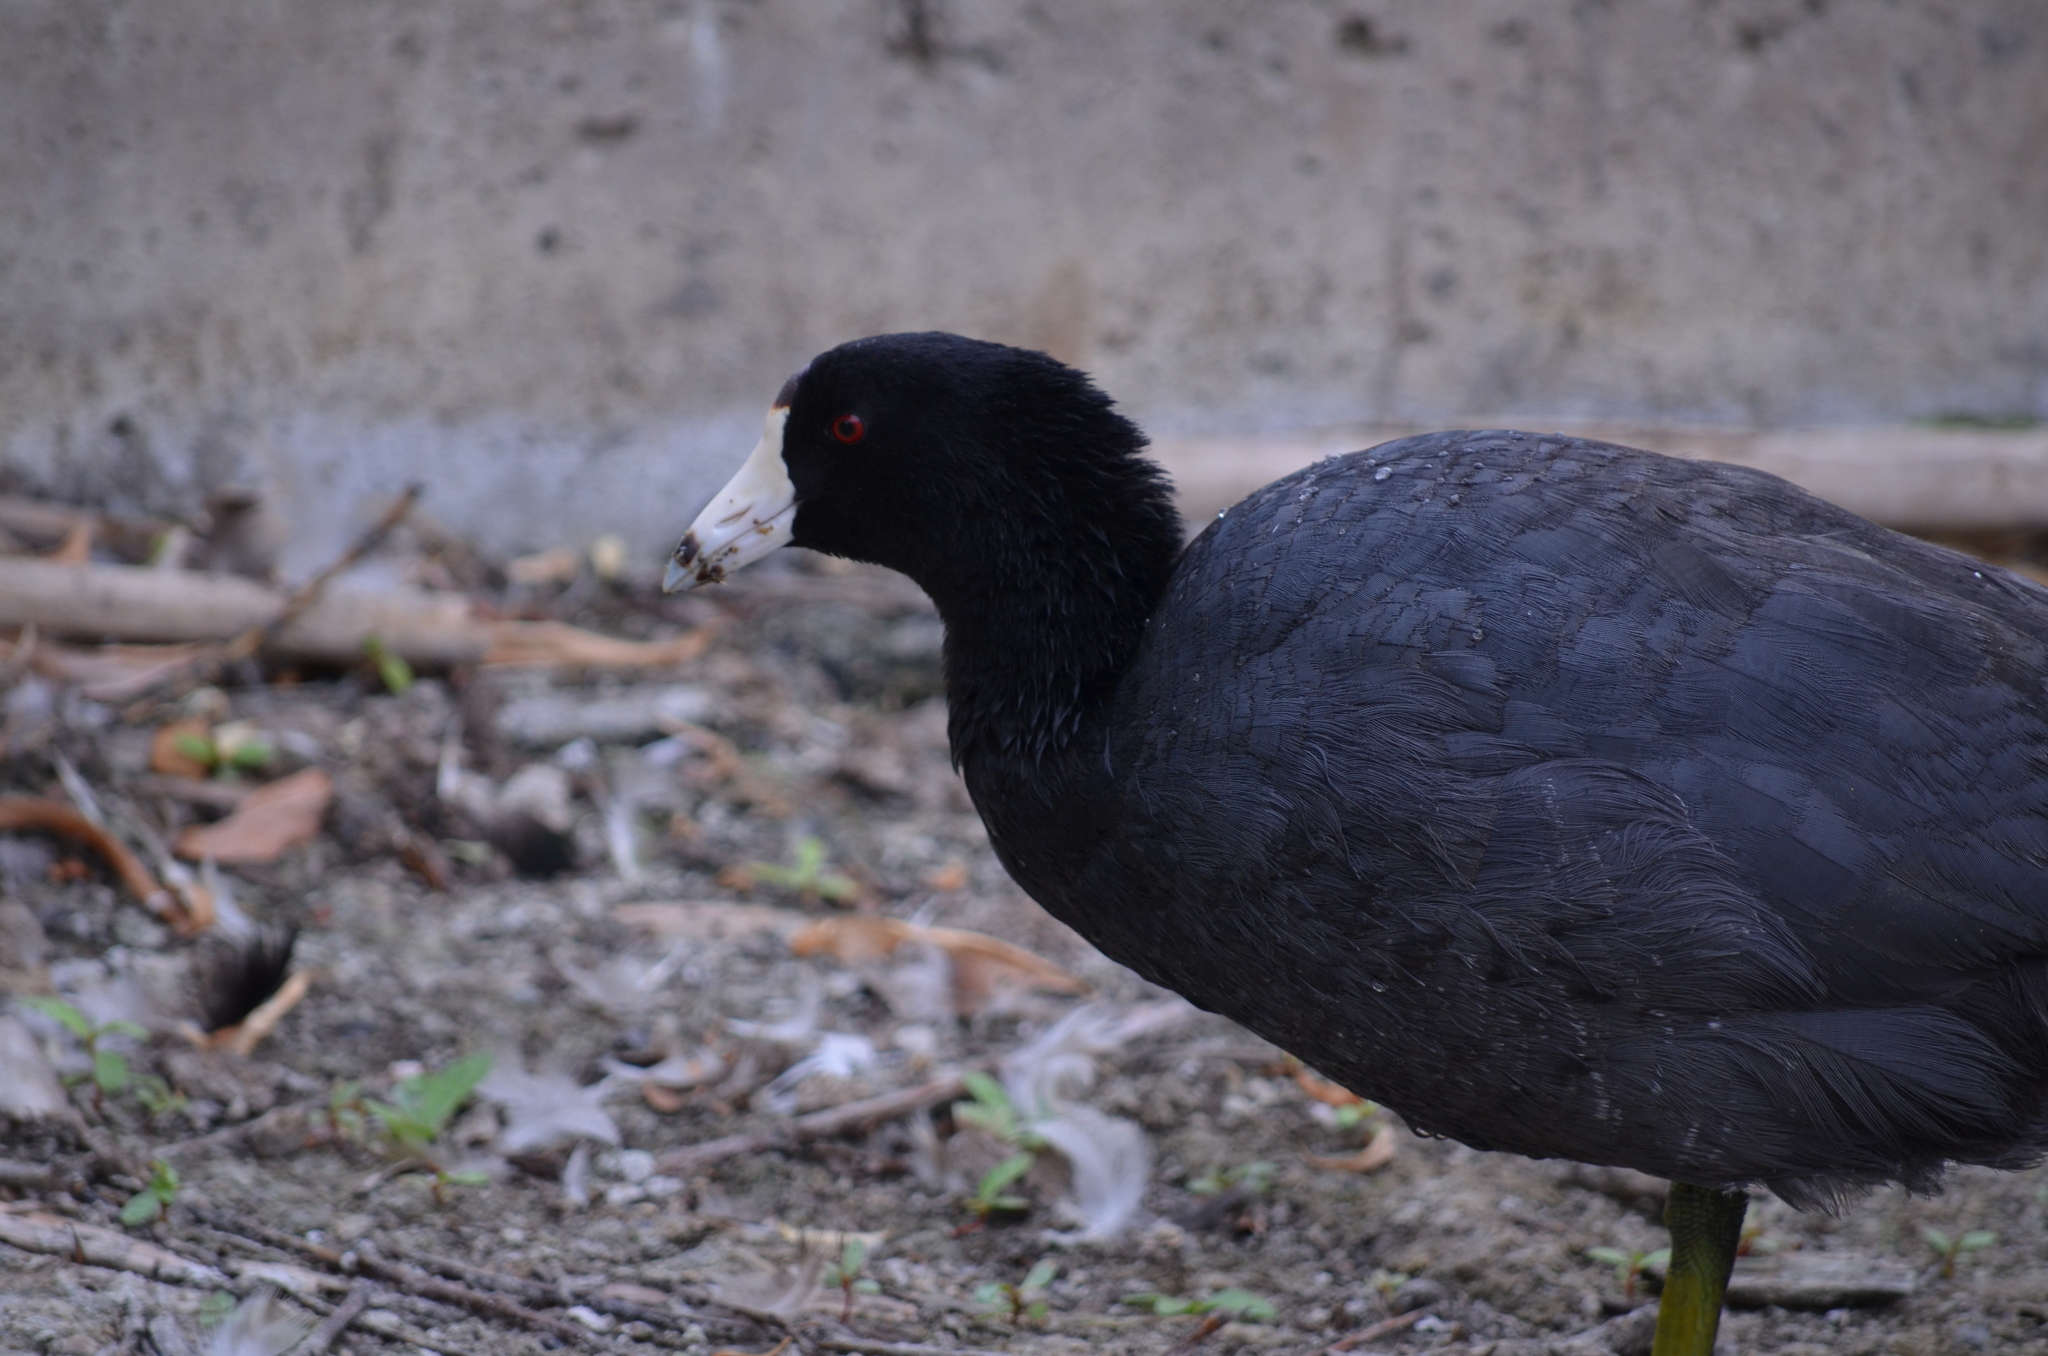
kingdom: Animalia
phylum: Chordata
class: Aves
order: Gruiformes
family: Rallidae
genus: Fulica
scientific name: Fulica americana
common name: American coot
